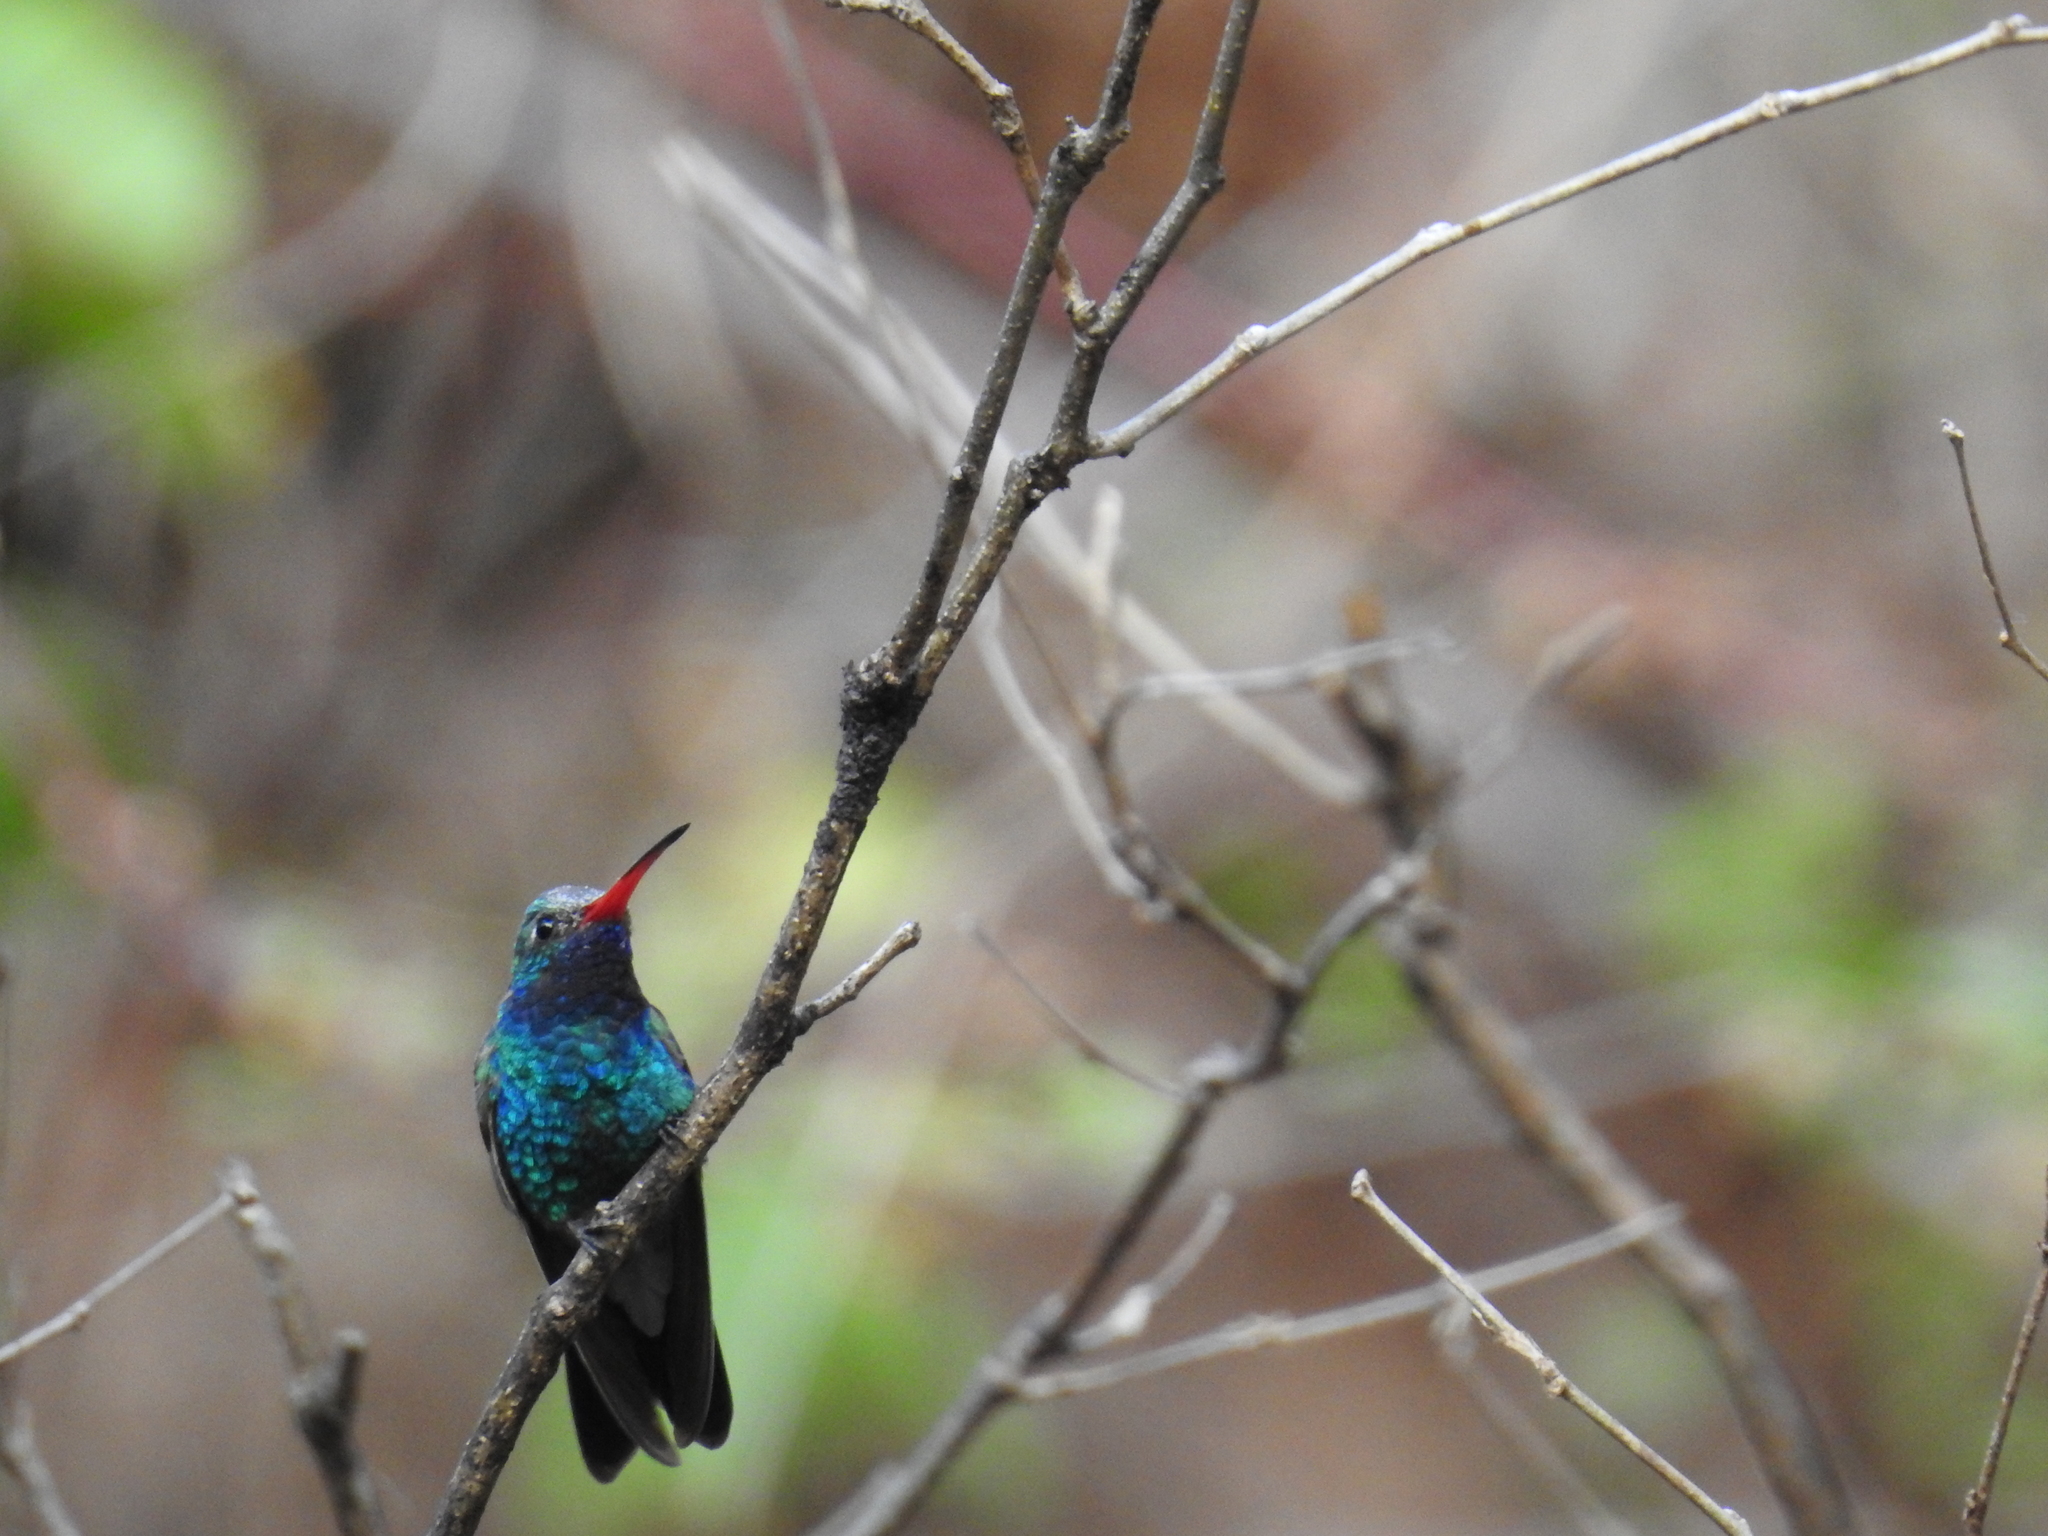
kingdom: Animalia
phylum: Chordata
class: Aves
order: Apodiformes
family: Trochilidae
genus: Cynanthus
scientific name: Cynanthus latirostris
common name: Broad-billed hummingbird
